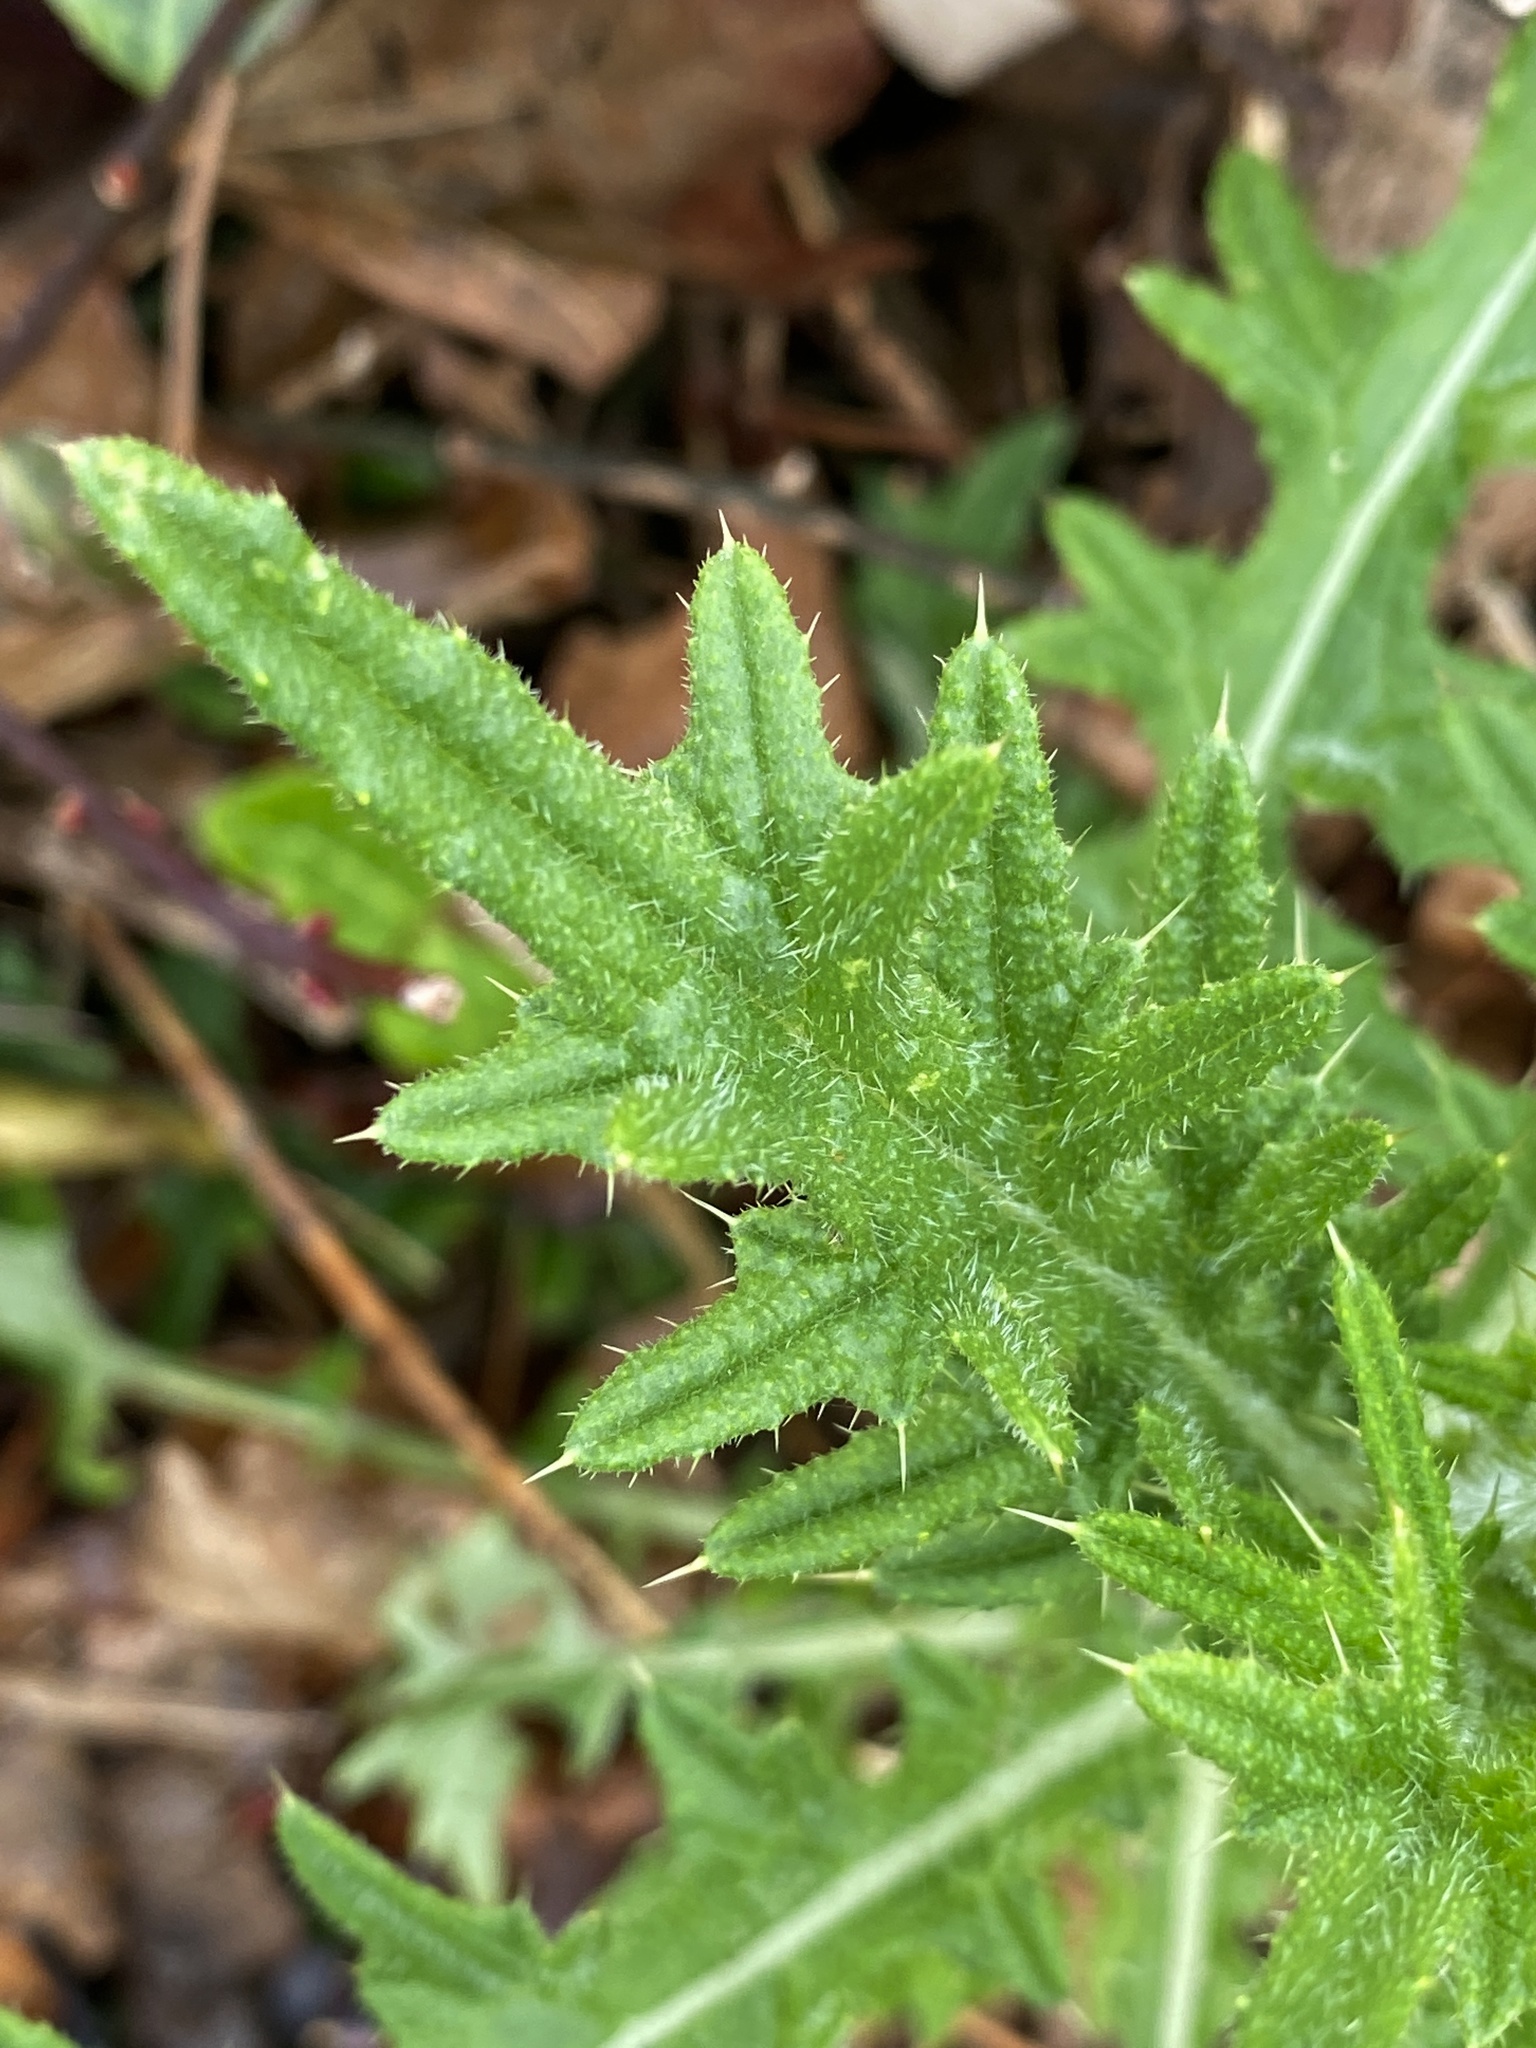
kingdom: Plantae
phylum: Tracheophyta
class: Magnoliopsida
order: Asterales
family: Asteraceae
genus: Cirsium
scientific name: Cirsium vulgare
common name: Bull thistle
